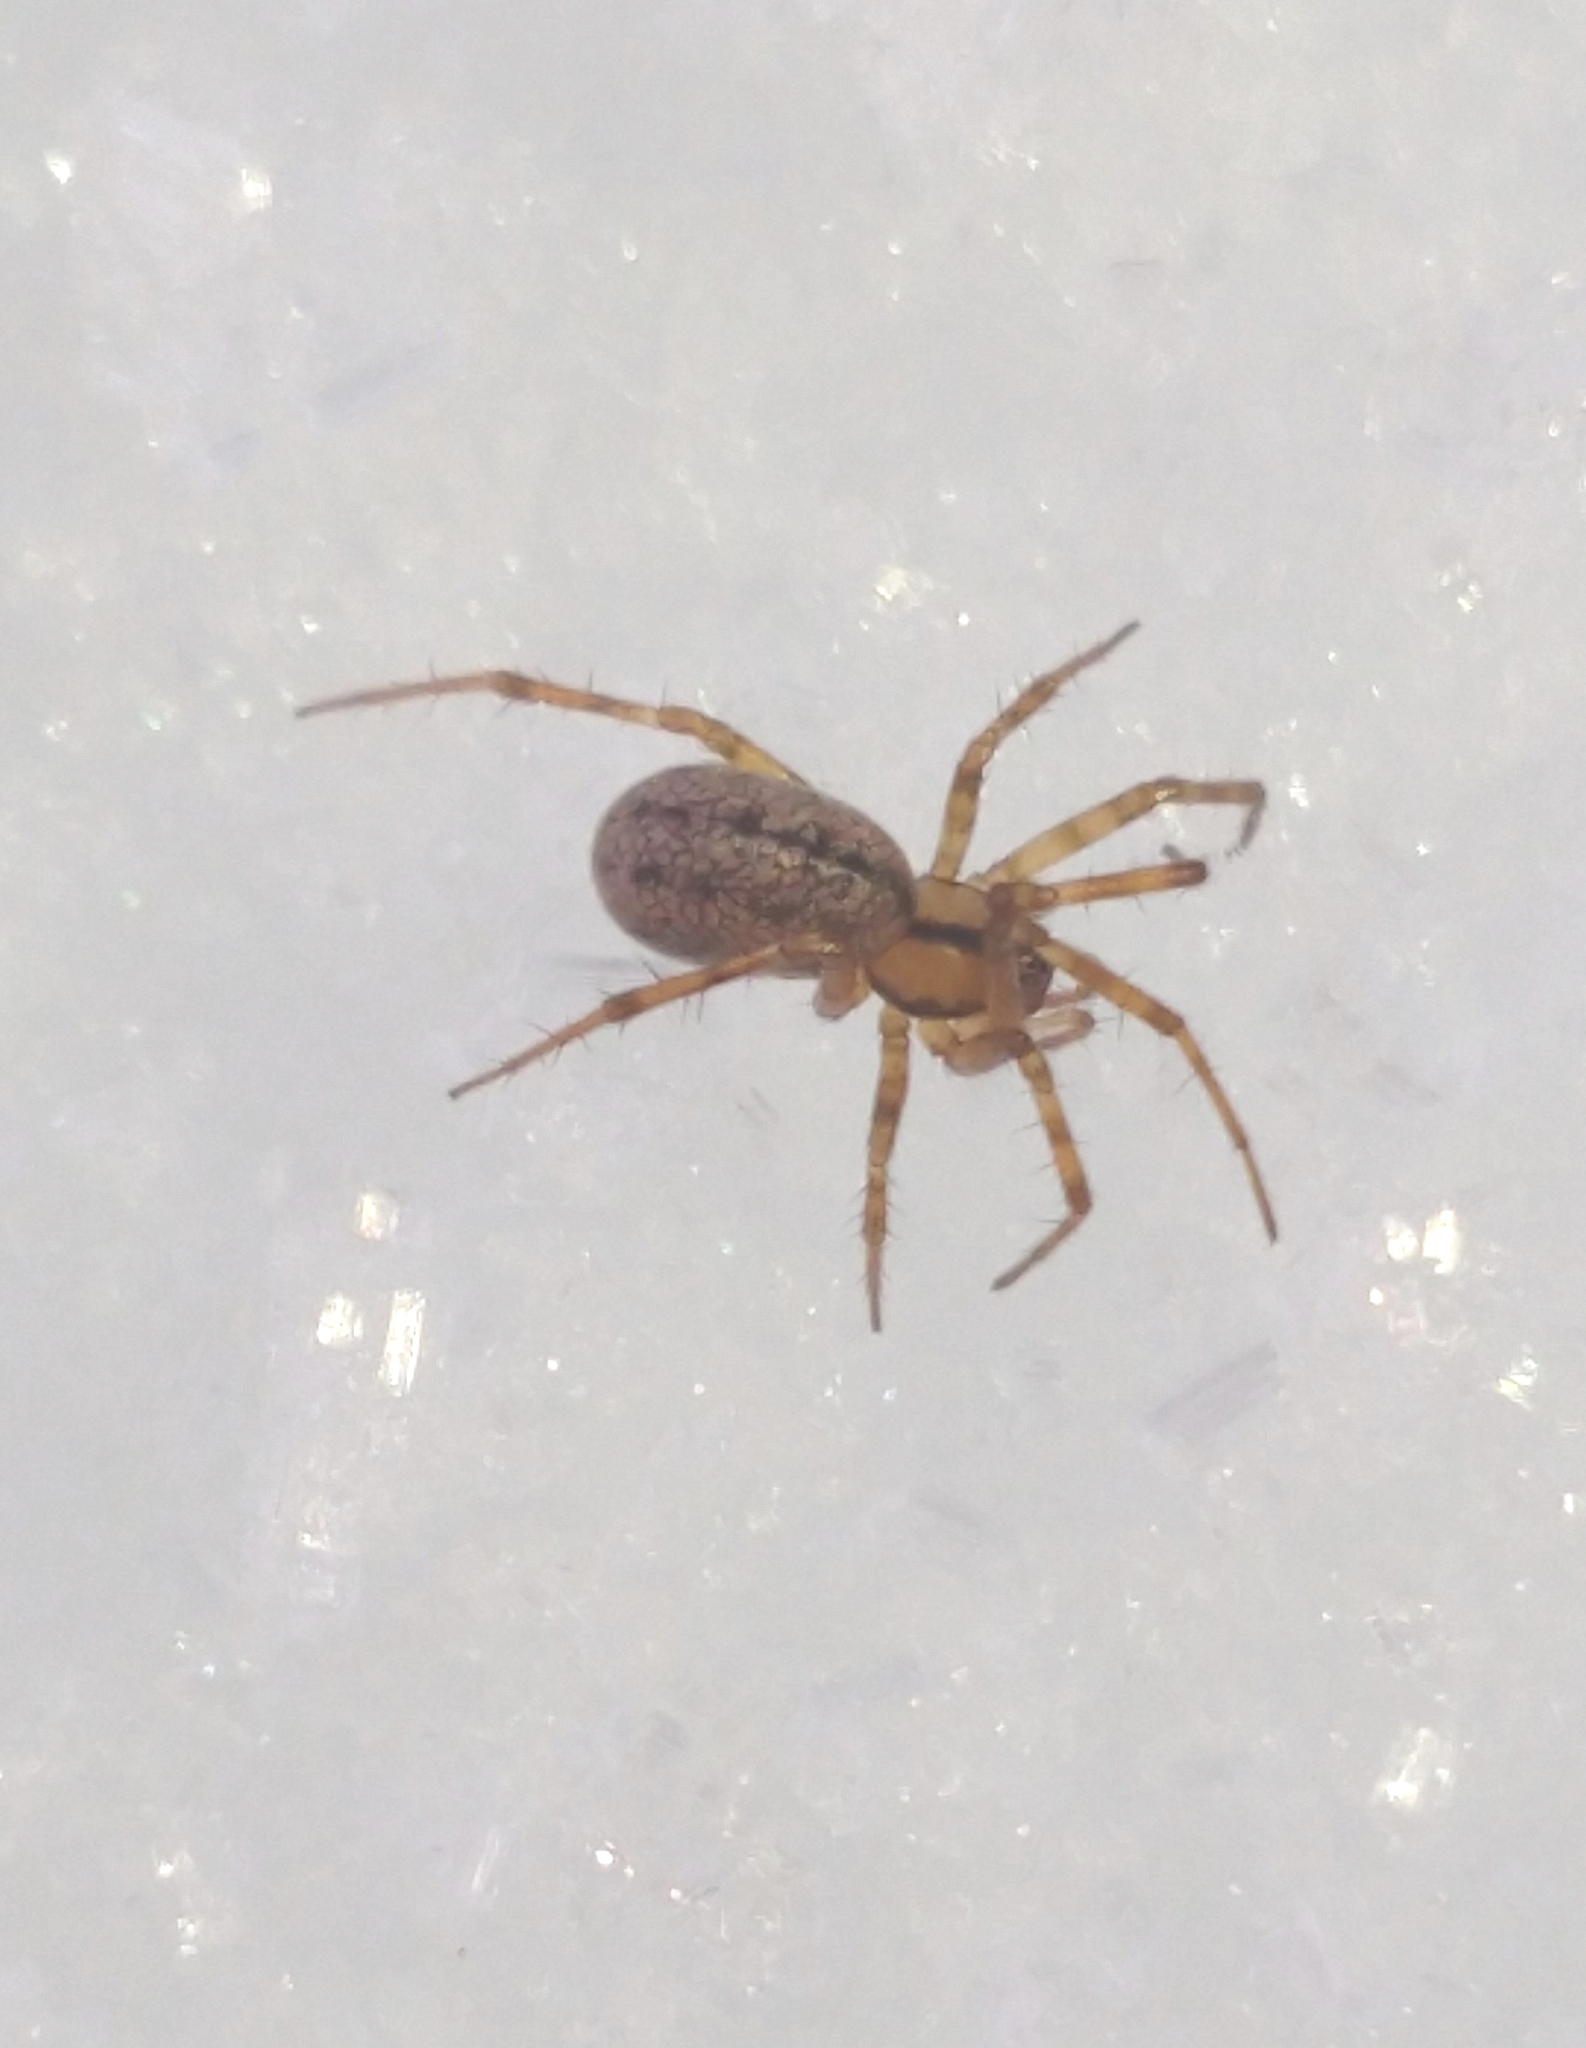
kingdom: Animalia
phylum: Arthropoda
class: Arachnida
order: Araneae
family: Linyphiidae
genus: Stemonyphantes
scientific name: Stemonyphantes lineatus
